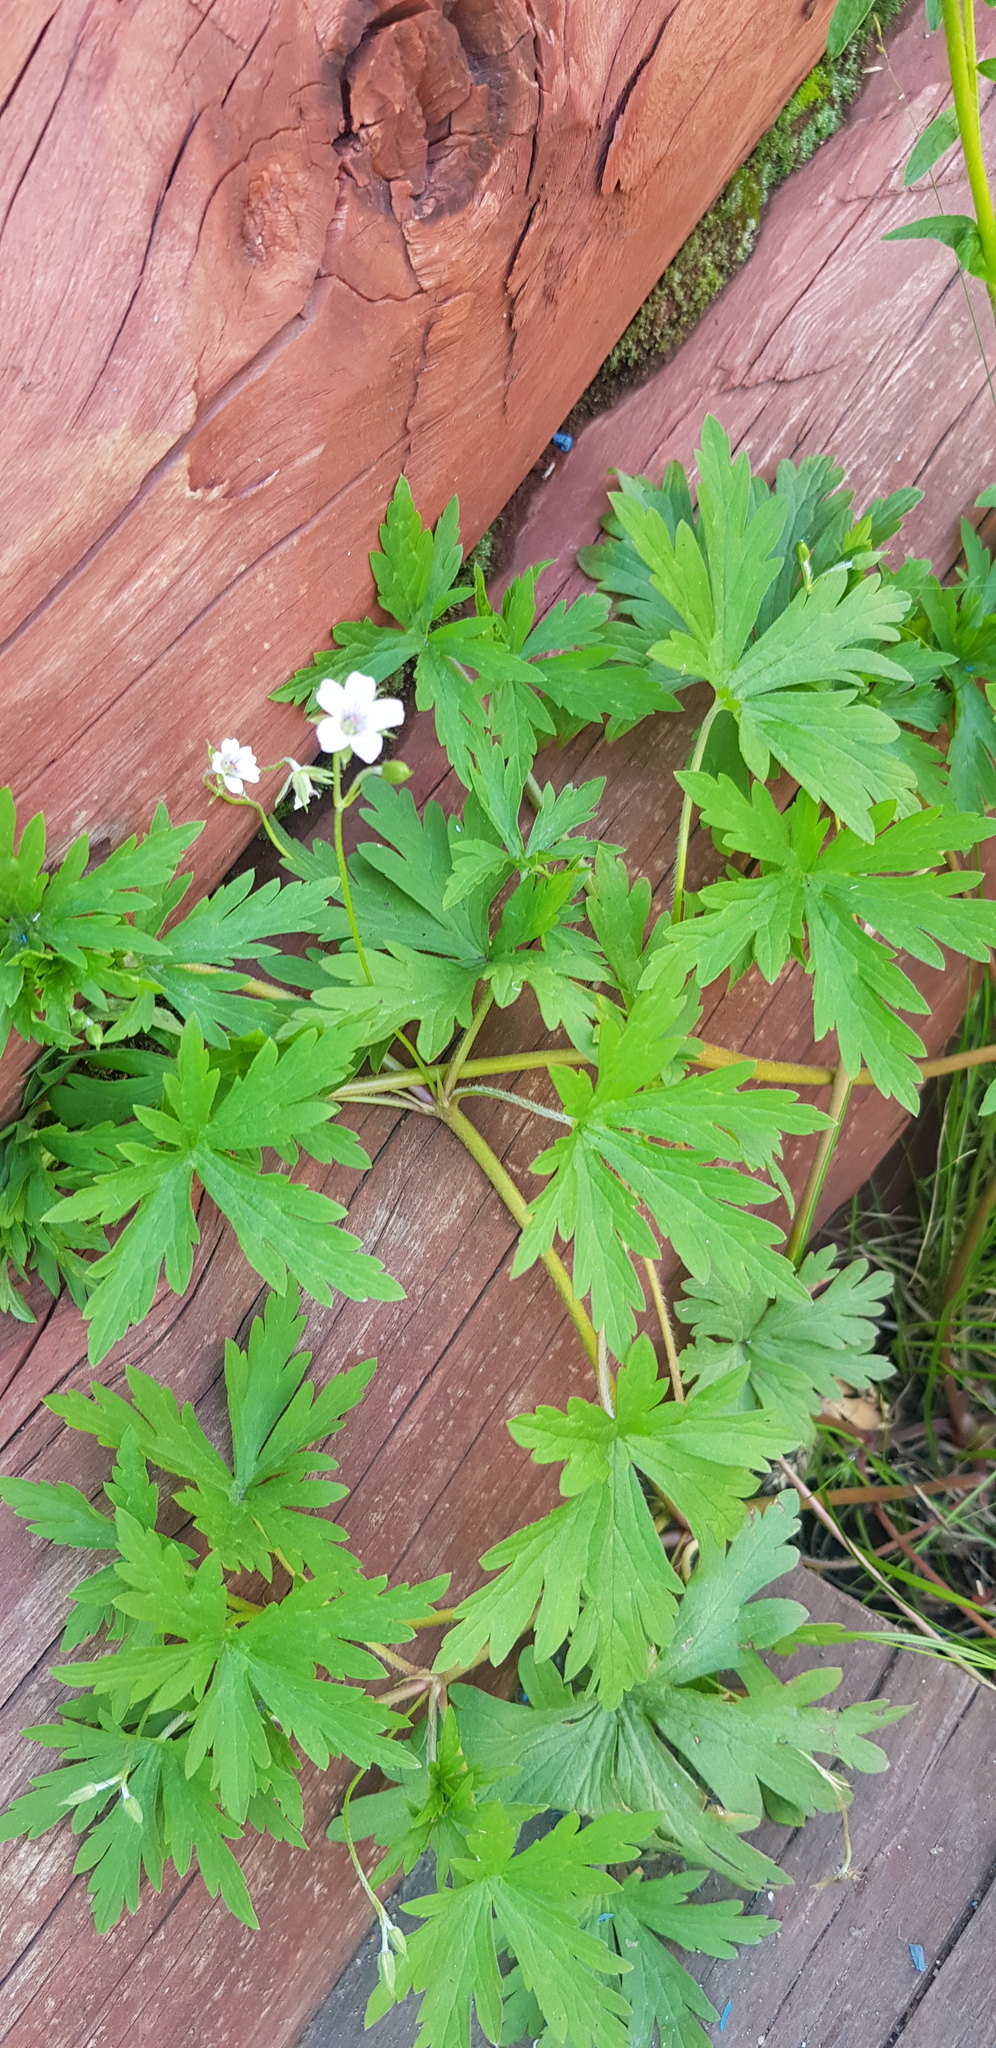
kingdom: Plantae
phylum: Tracheophyta
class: Magnoliopsida
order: Geraniales
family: Geraniaceae
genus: Geranium
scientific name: Geranium sibiricum
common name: Siberian crane's-bill
